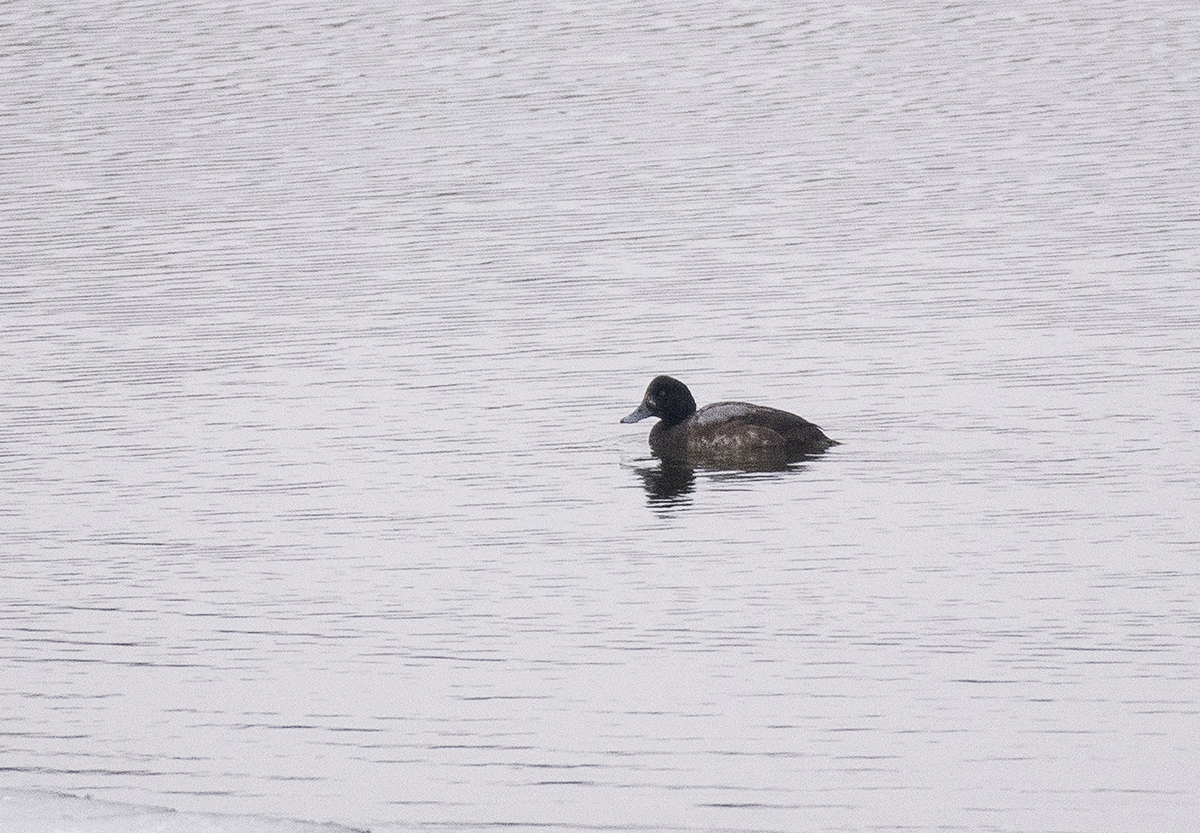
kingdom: Animalia
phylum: Chordata
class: Aves
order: Anseriformes
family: Anatidae
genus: Aythya
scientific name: Aythya marila
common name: Greater scaup
